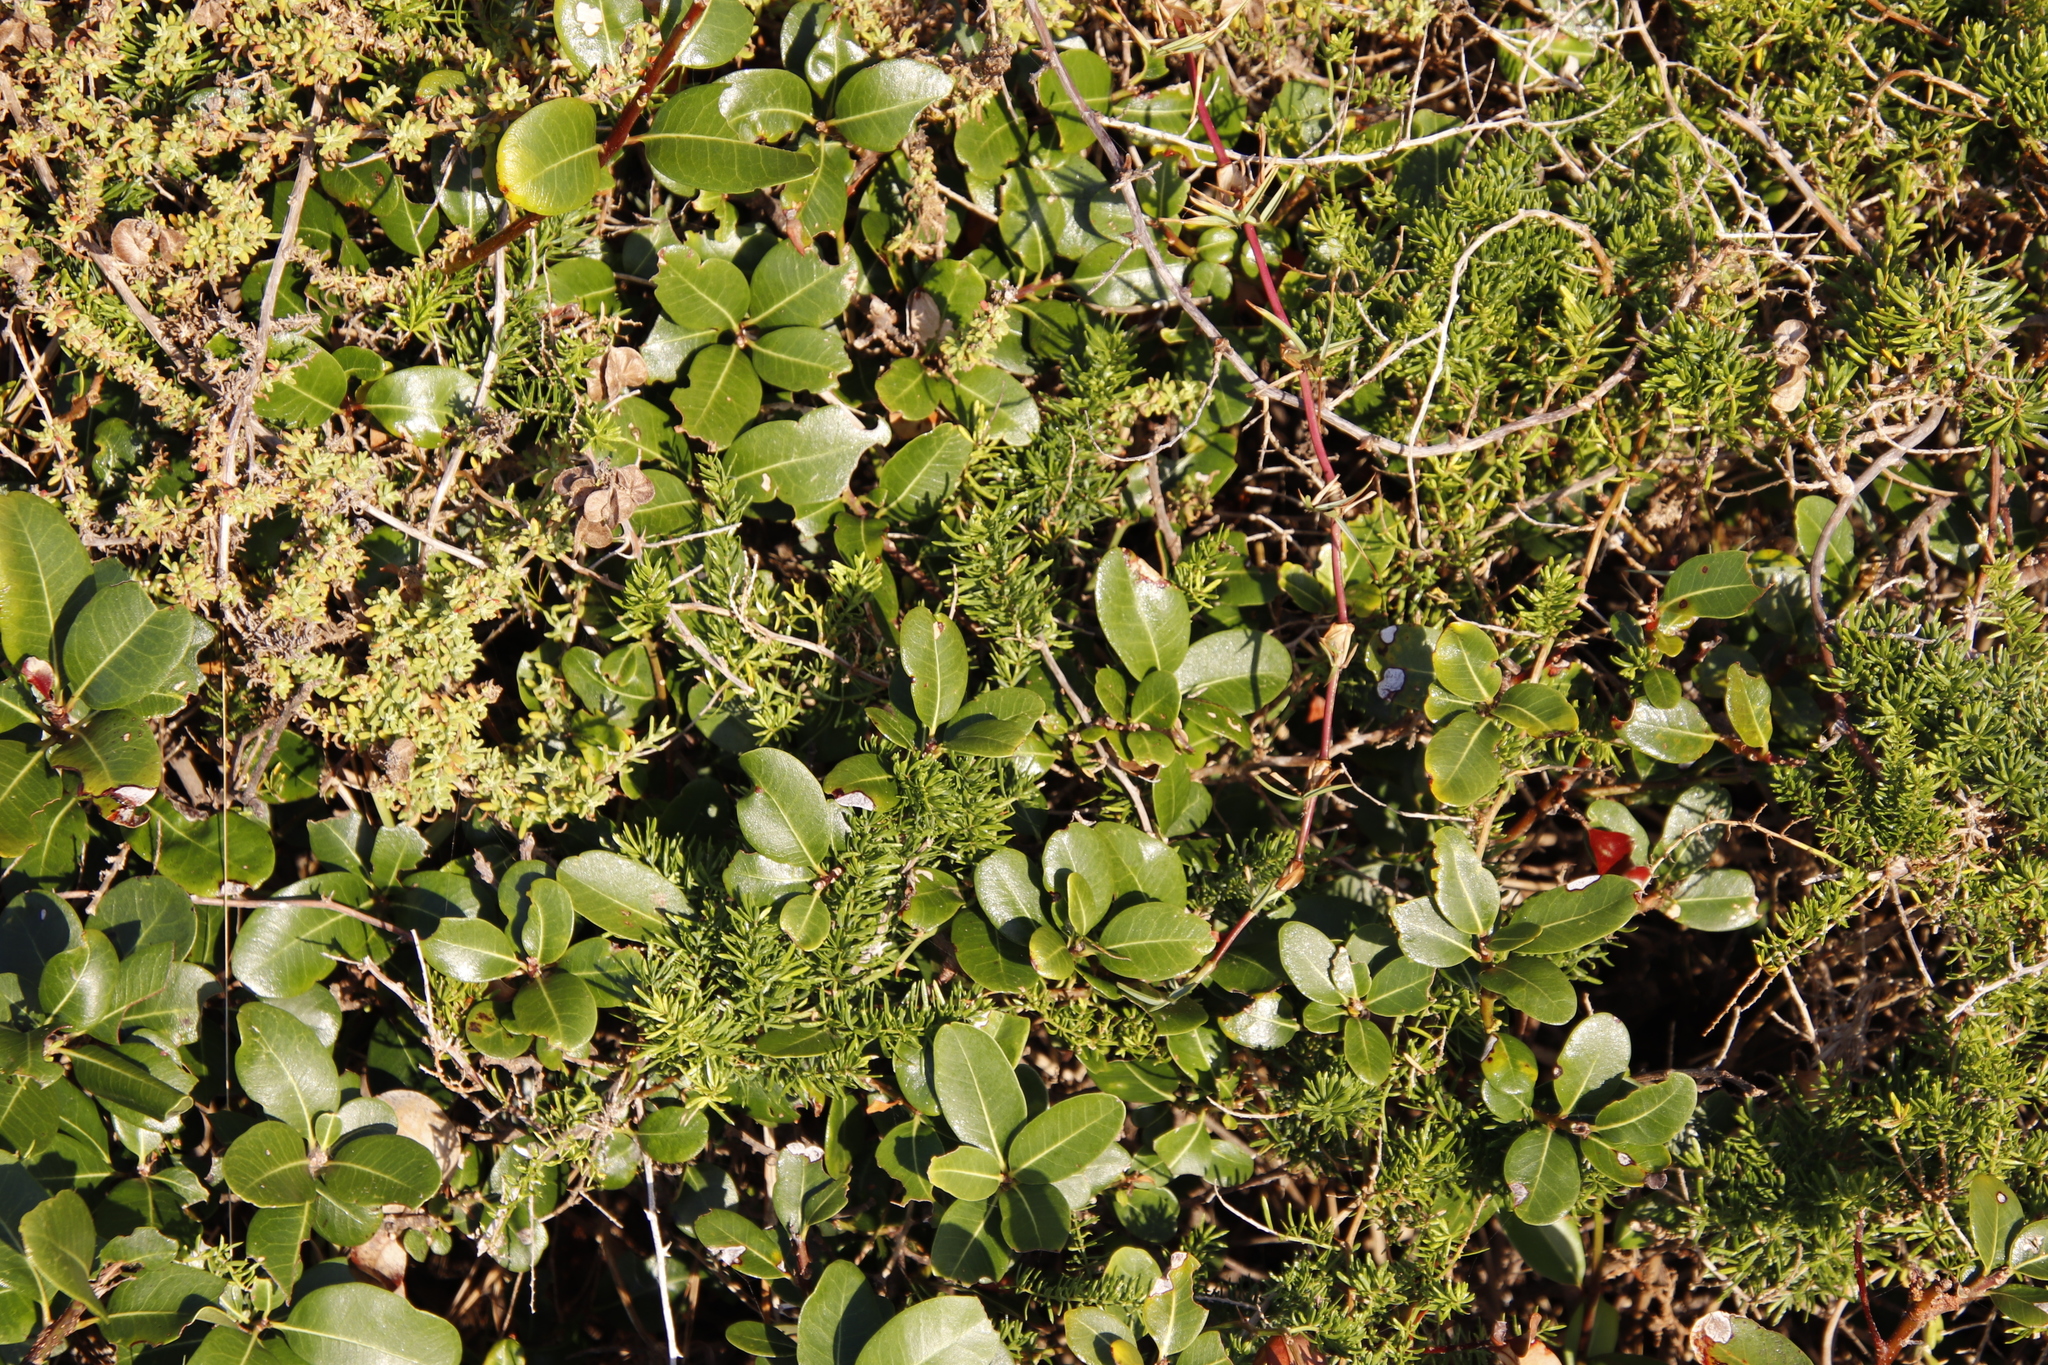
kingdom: Plantae
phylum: Tracheophyta
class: Magnoliopsida
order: Ericales
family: Sapotaceae
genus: Sideroxylon
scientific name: Sideroxylon inerme
